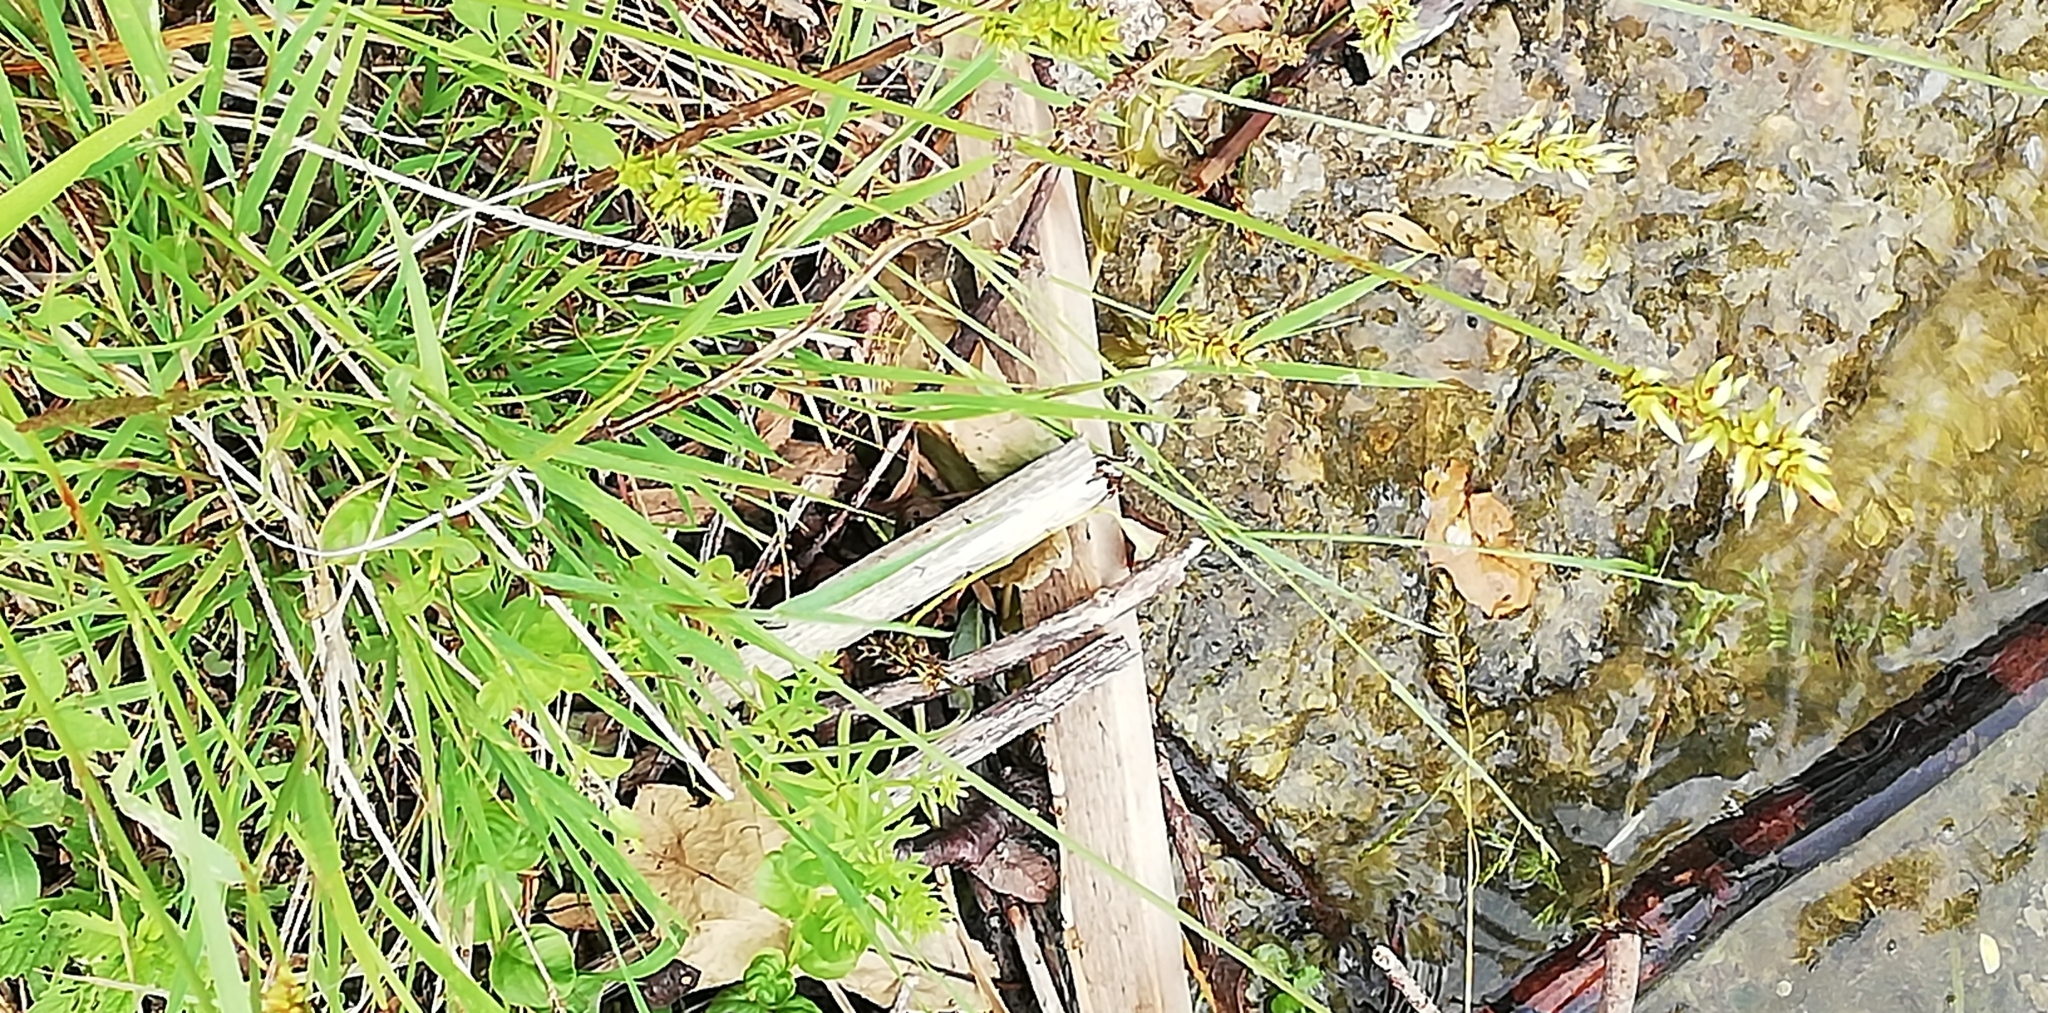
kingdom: Plantae
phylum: Tracheophyta
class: Liliopsida
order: Poales
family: Cyperaceae
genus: Carex
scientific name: Carex spicata
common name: Spiked sedge
